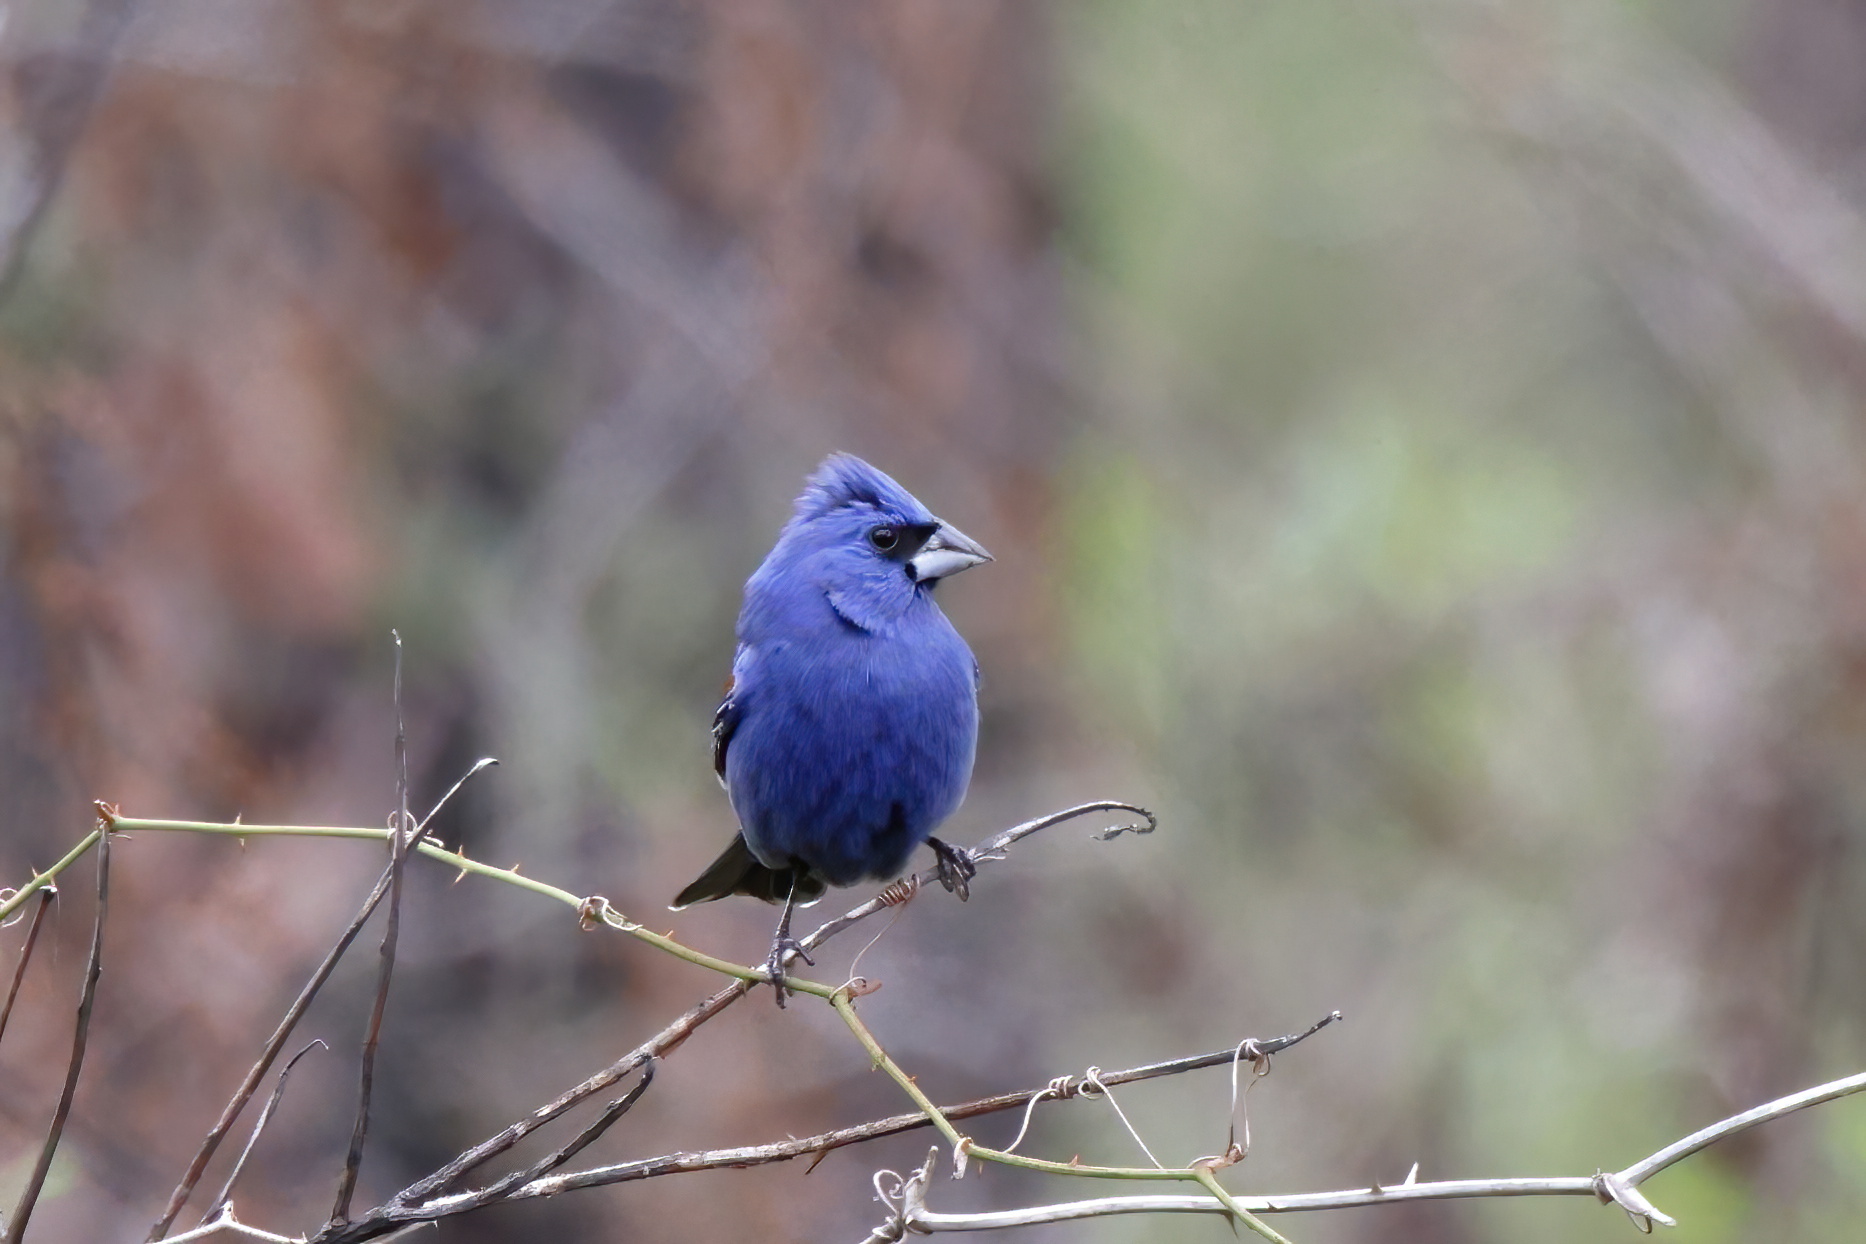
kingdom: Animalia
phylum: Chordata
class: Aves
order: Passeriformes
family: Cardinalidae
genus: Passerina
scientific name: Passerina caerulea
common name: Blue grosbeak
